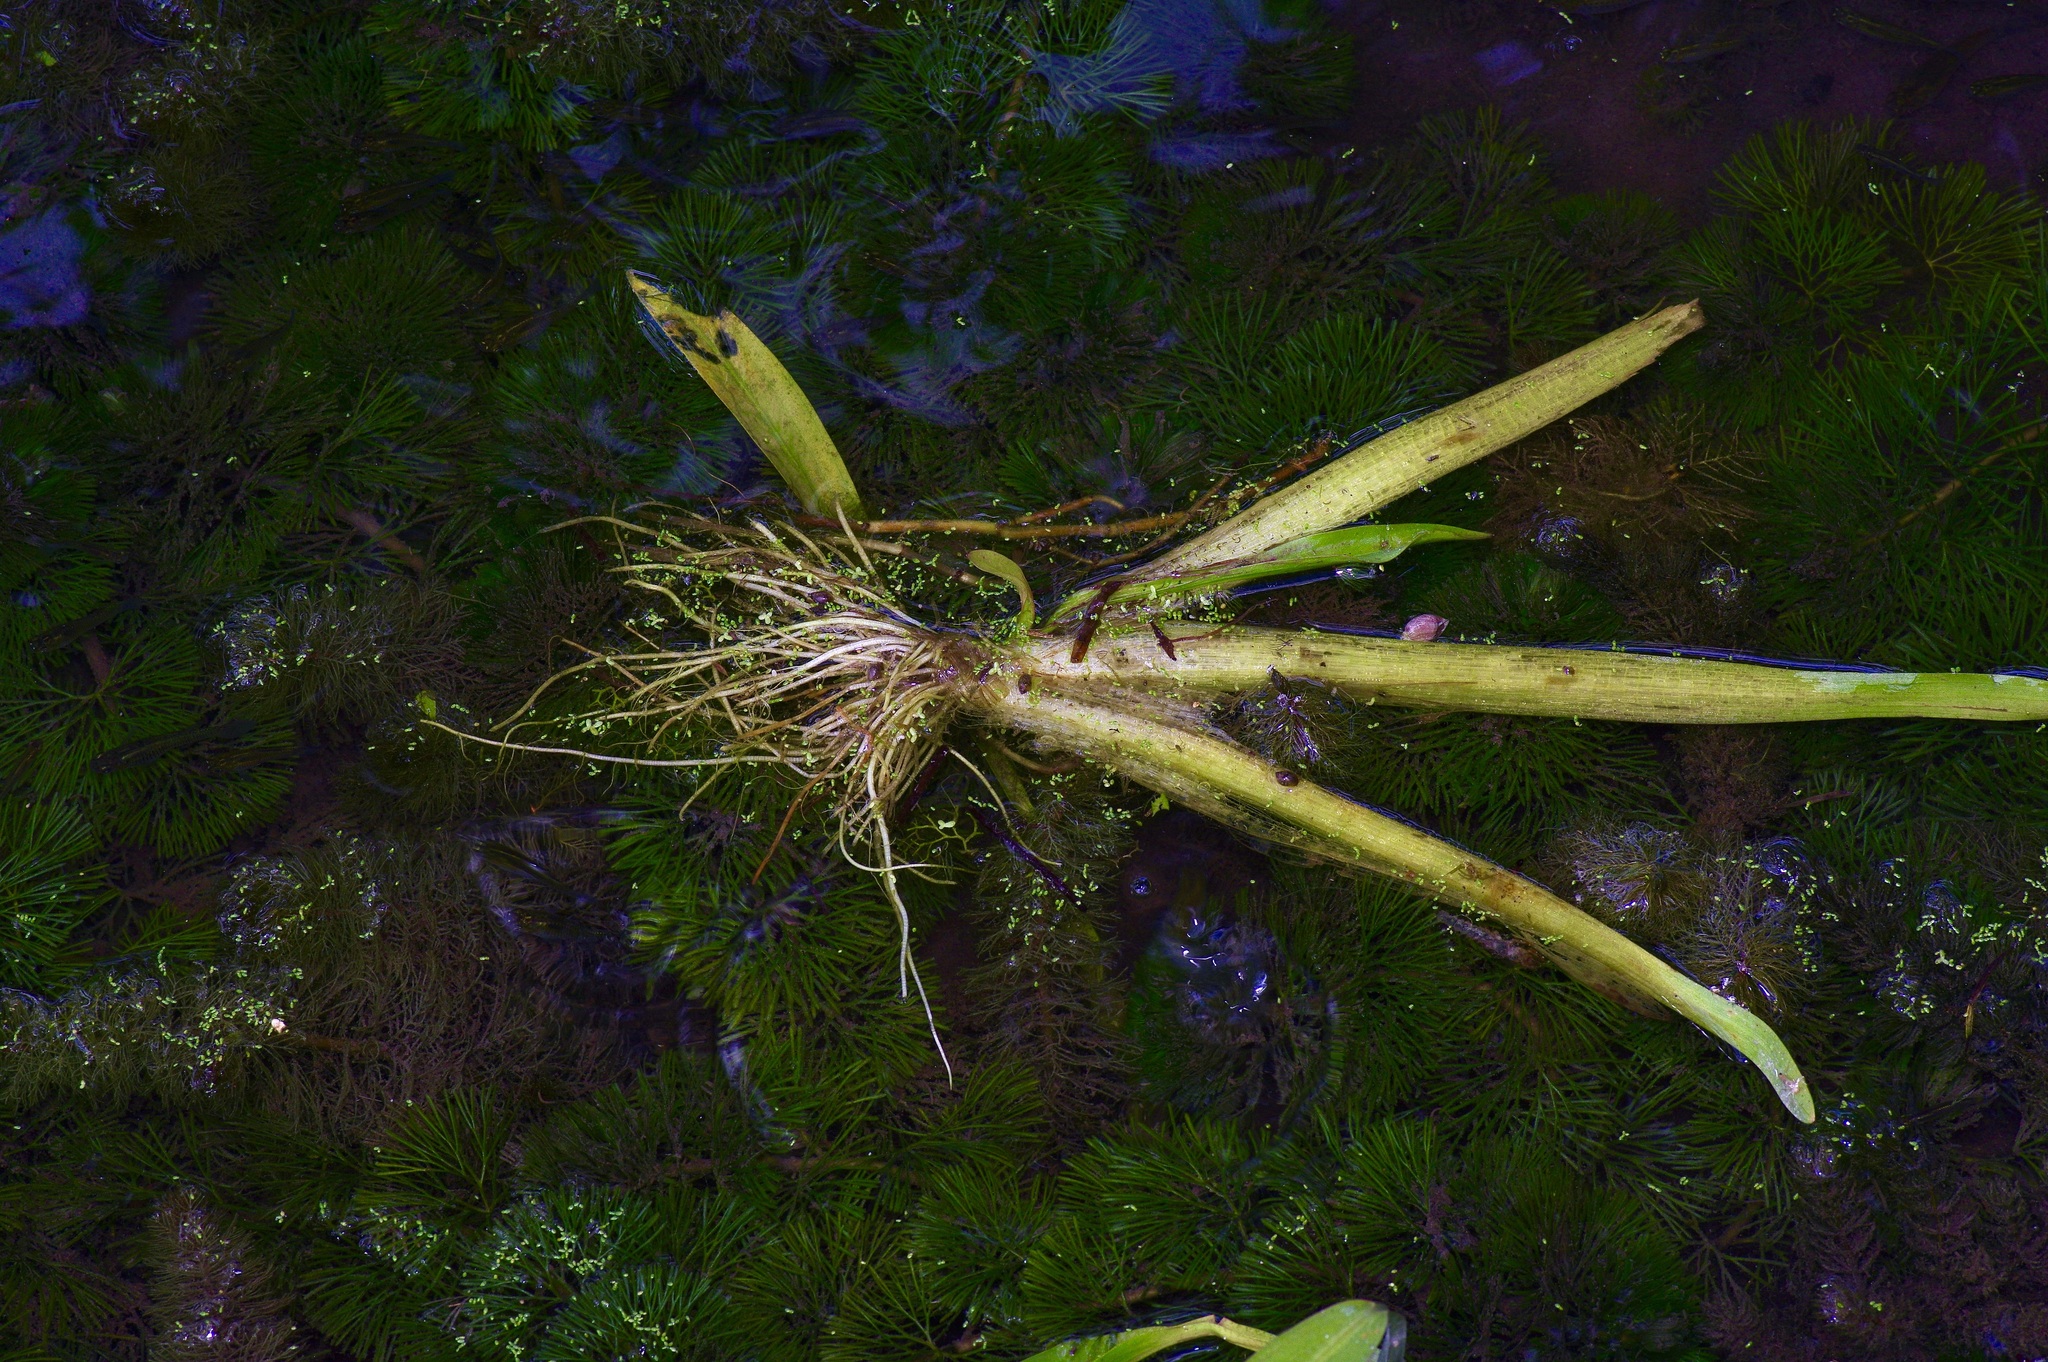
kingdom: Plantae
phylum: Tracheophyta
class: Liliopsida
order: Alismatales
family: Alismataceae
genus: Sagittaria
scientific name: Sagittaria platyphylla
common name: Broad-leaf arrowhead
